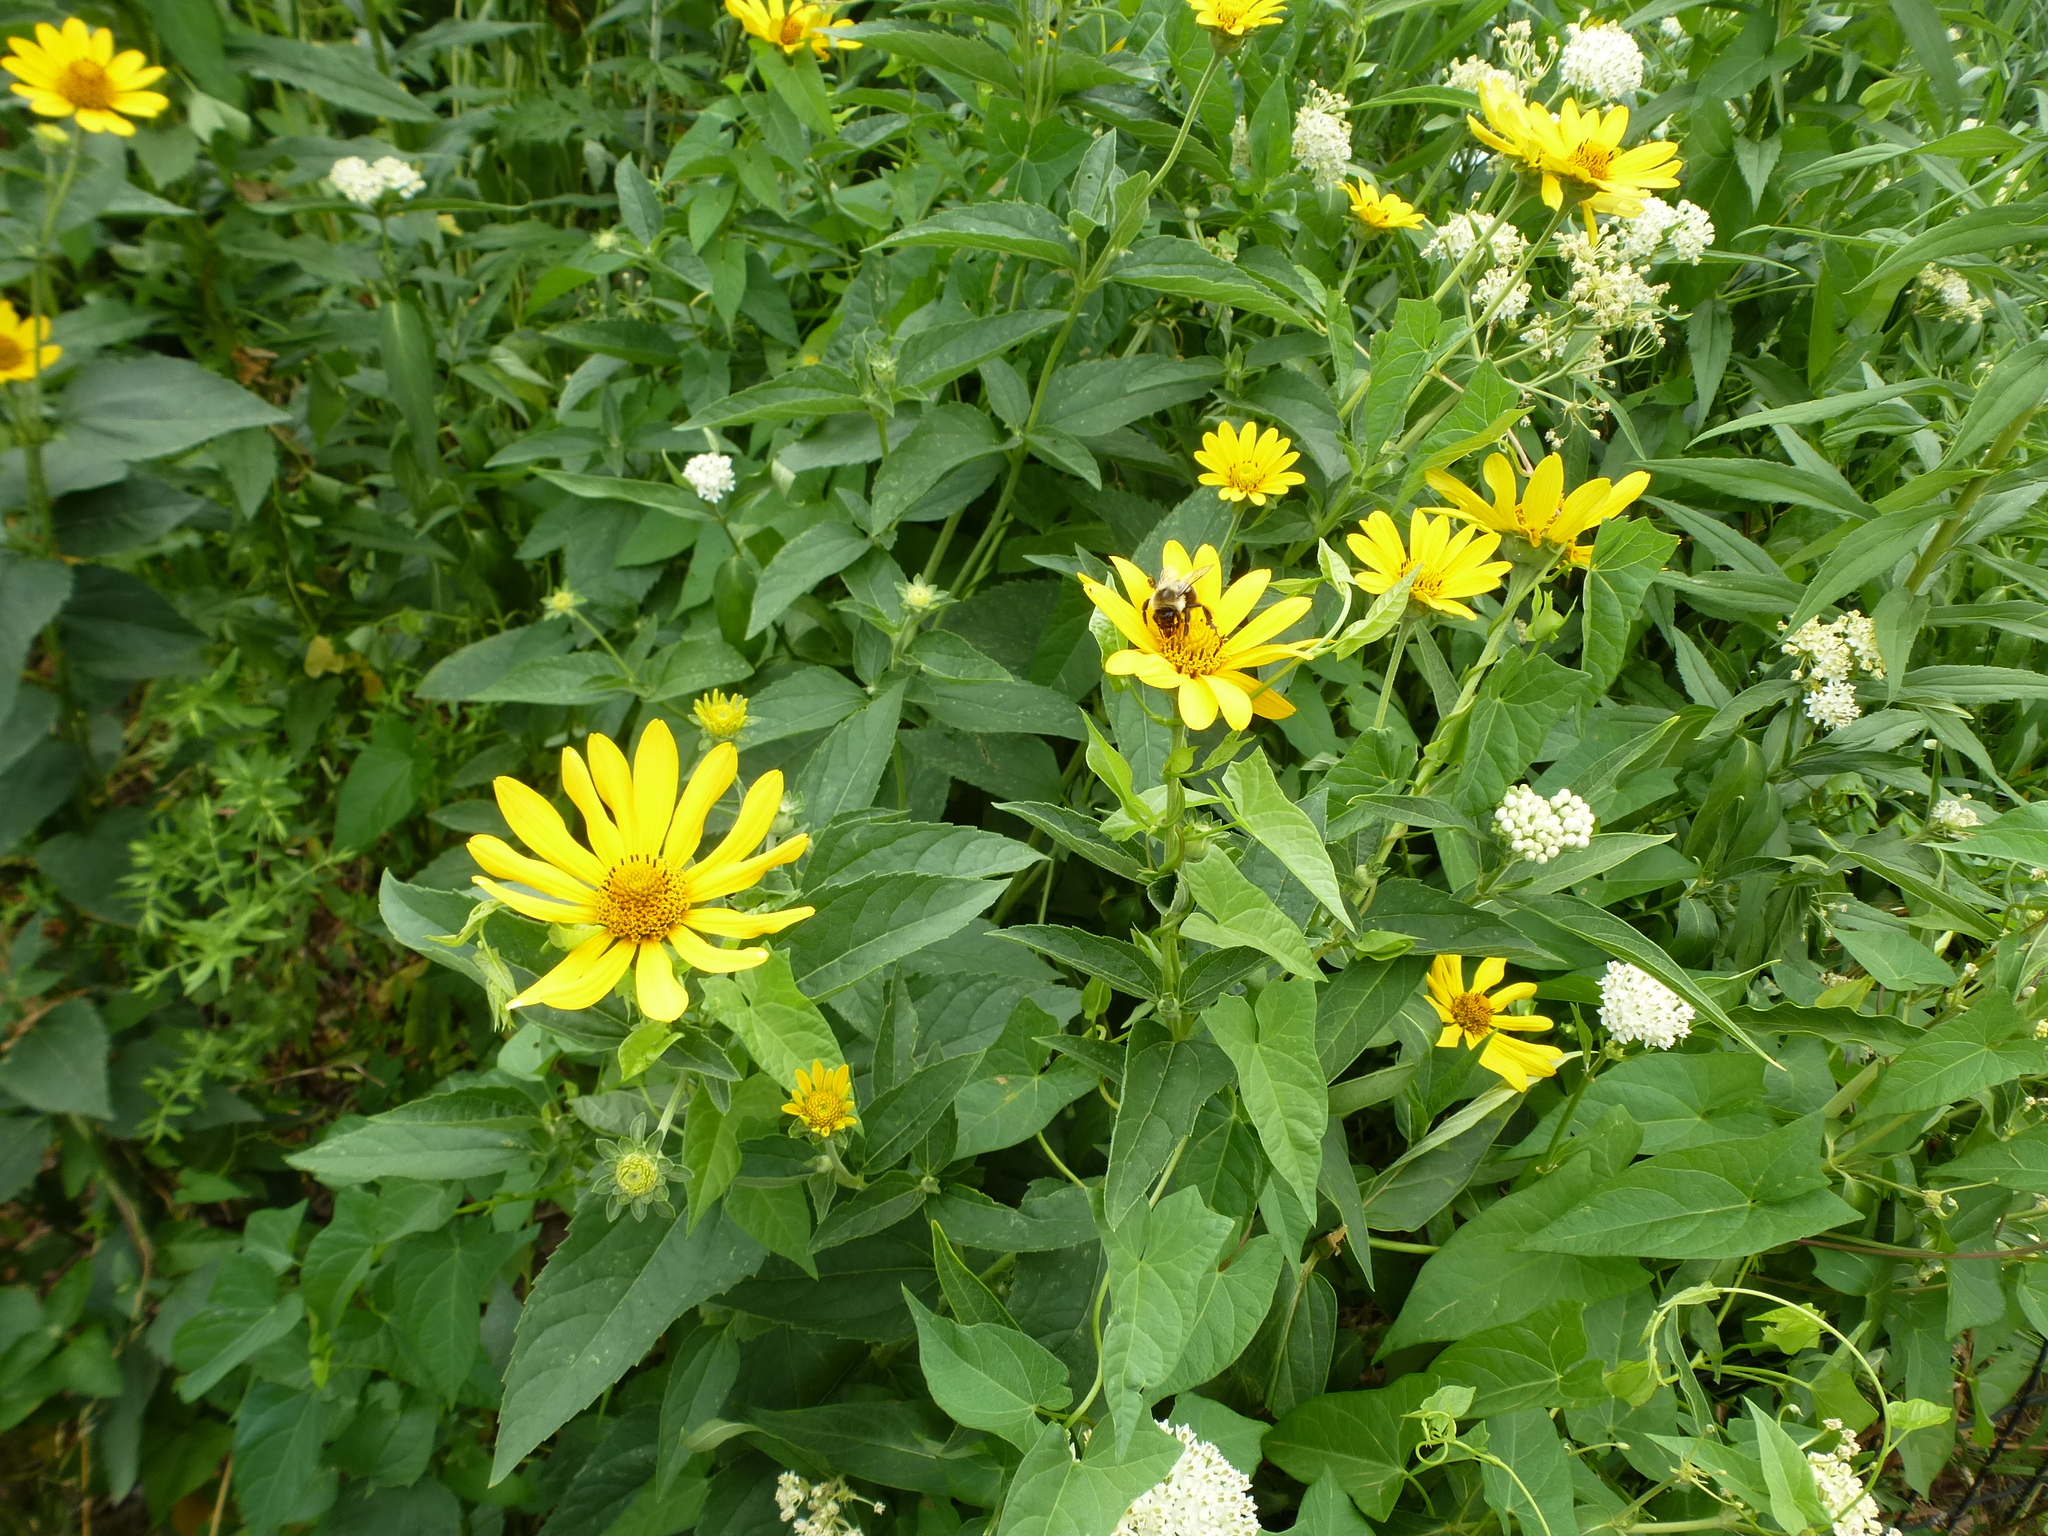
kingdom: Animalia
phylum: Arthropoda
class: Insecta
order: Hymenoptera
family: Apidae
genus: Bombus
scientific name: Bombus impatiens
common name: Common eastern bumble bee
